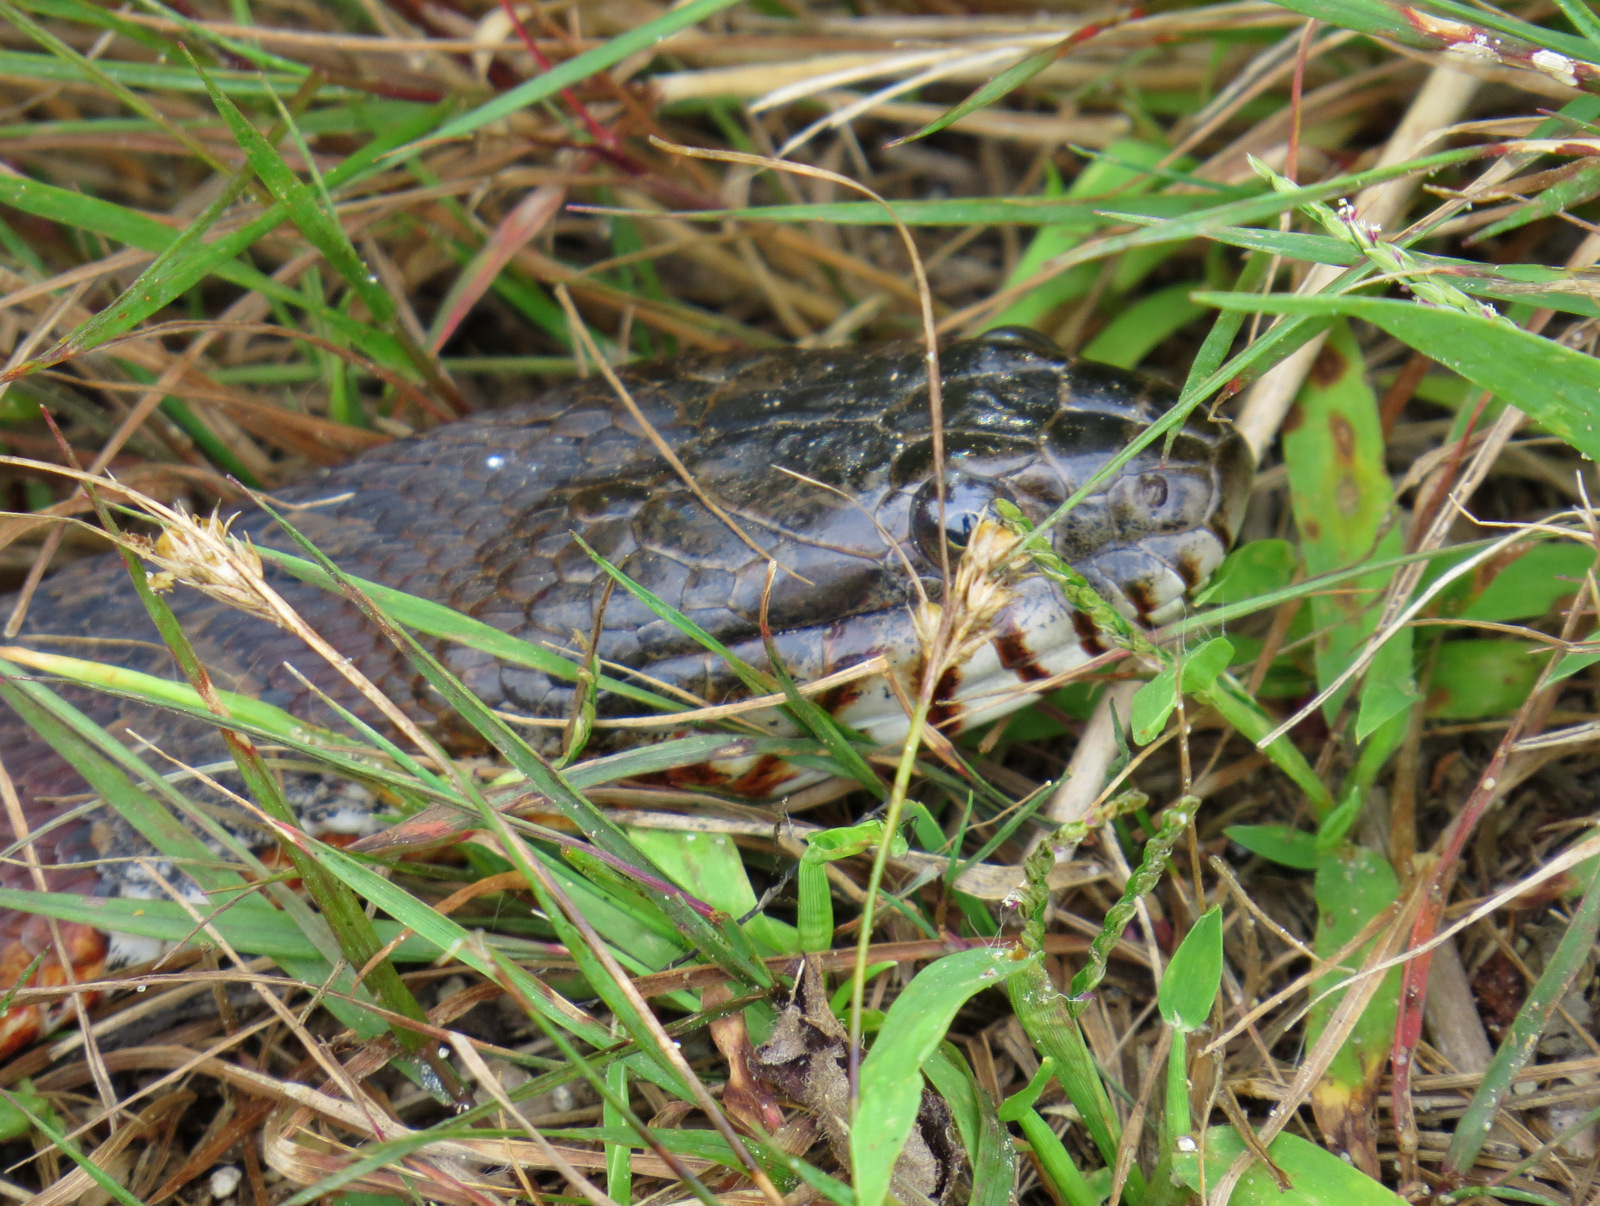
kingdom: Animalia
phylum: Chordata
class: Squamata
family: Colubridae
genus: Nerodia
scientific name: Nerodia sipedon
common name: Northern water snake
